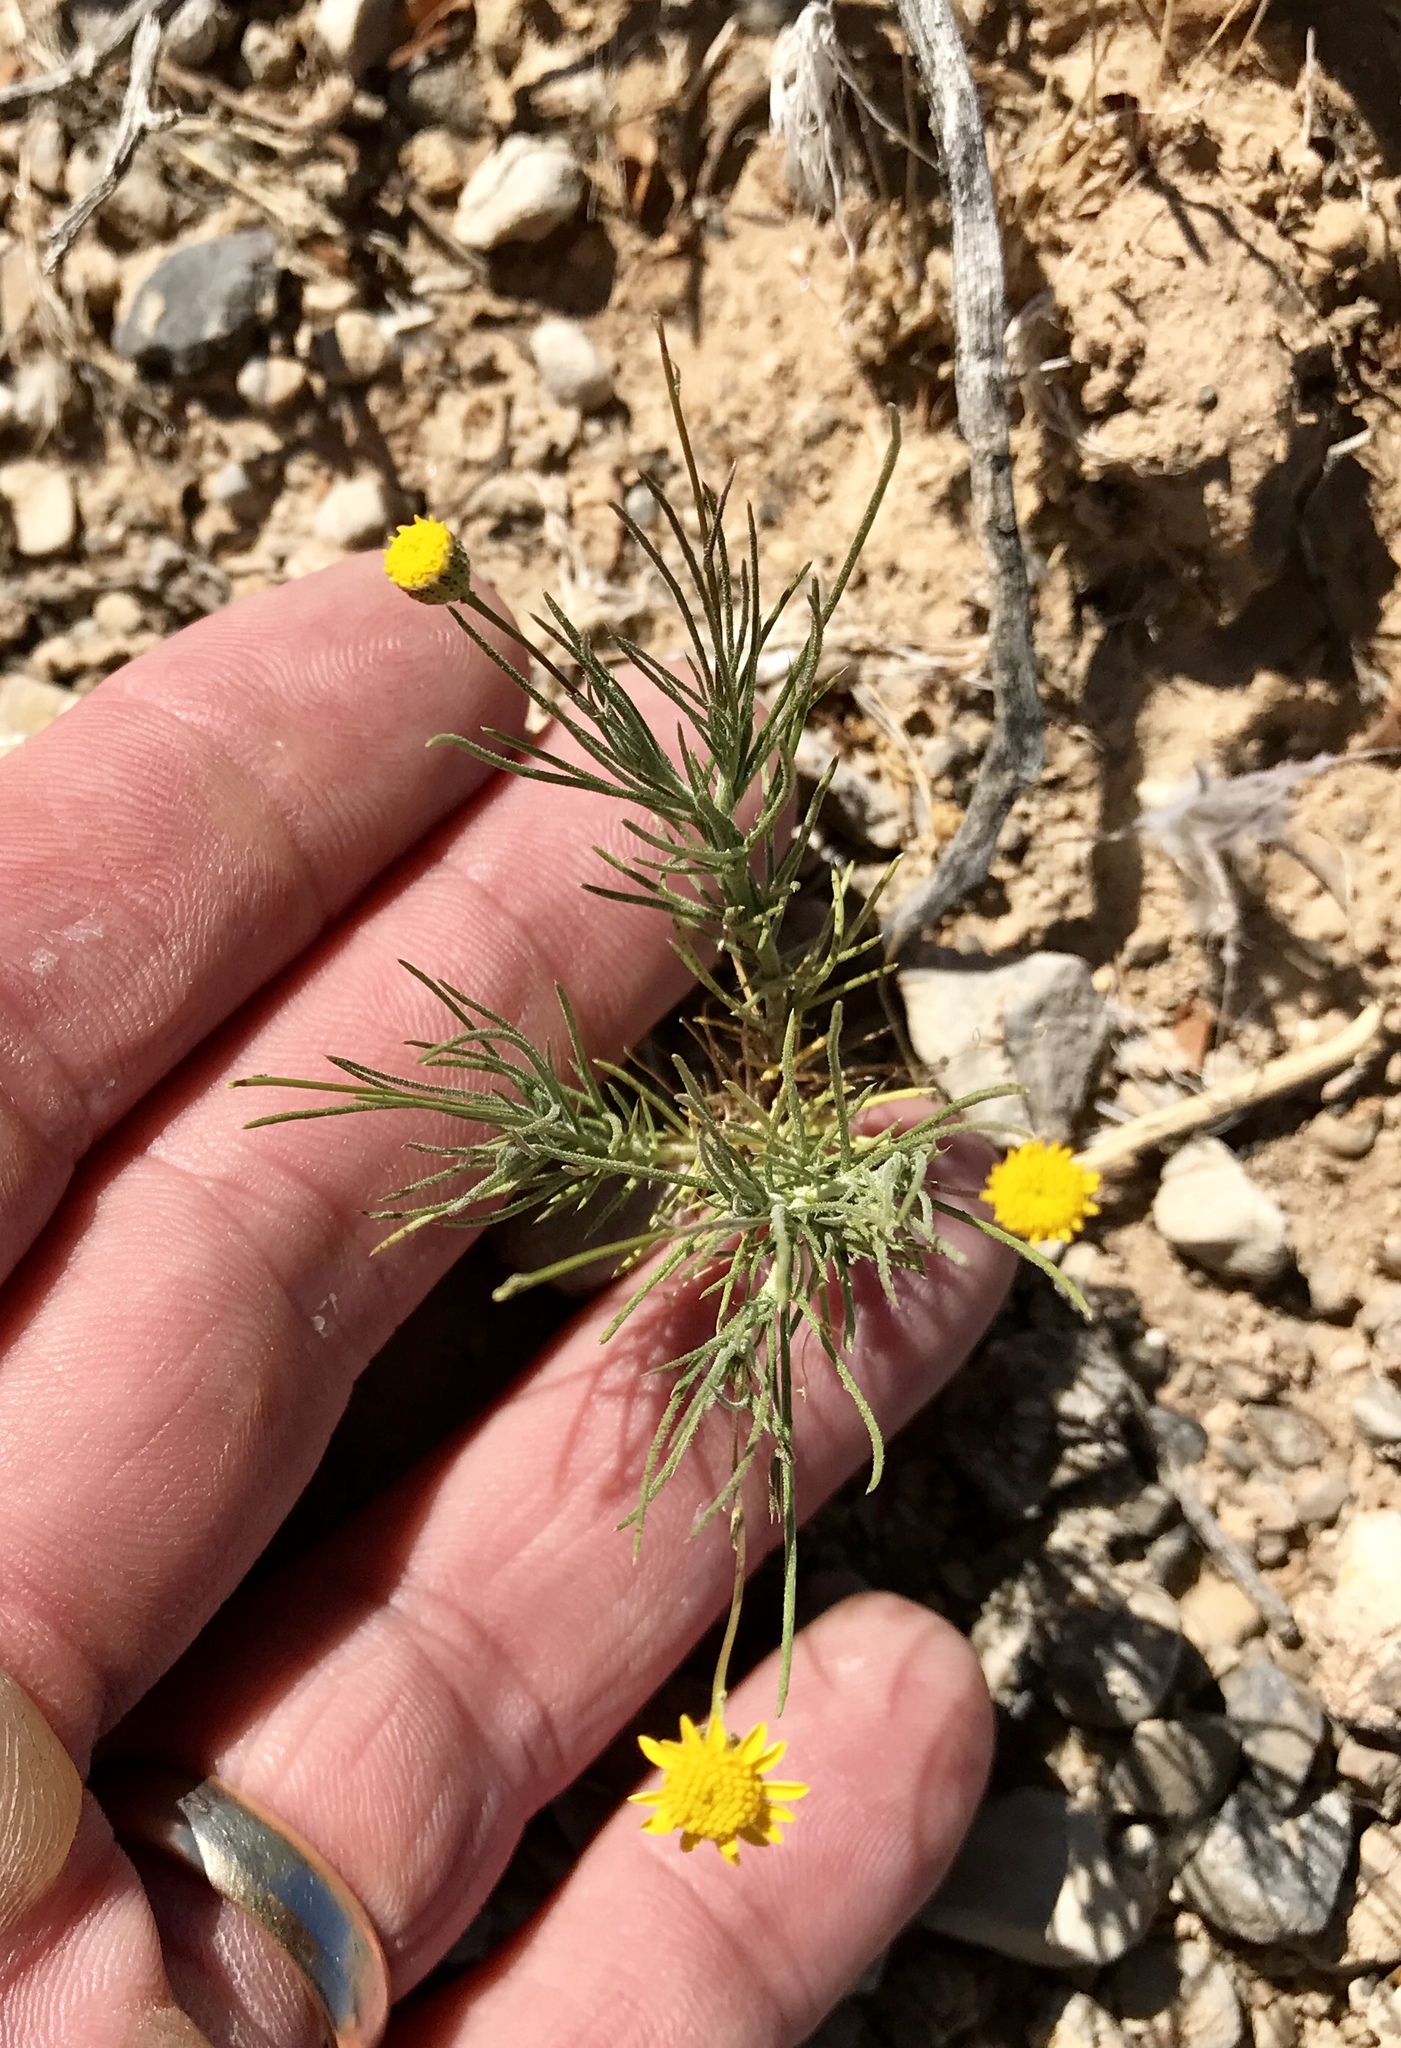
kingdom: Plantae
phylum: Tracheophyta
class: Magnoliopsida
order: Asterales
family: Asteraceae
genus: Thymophylla
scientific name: Thymophylla pentachaeta
